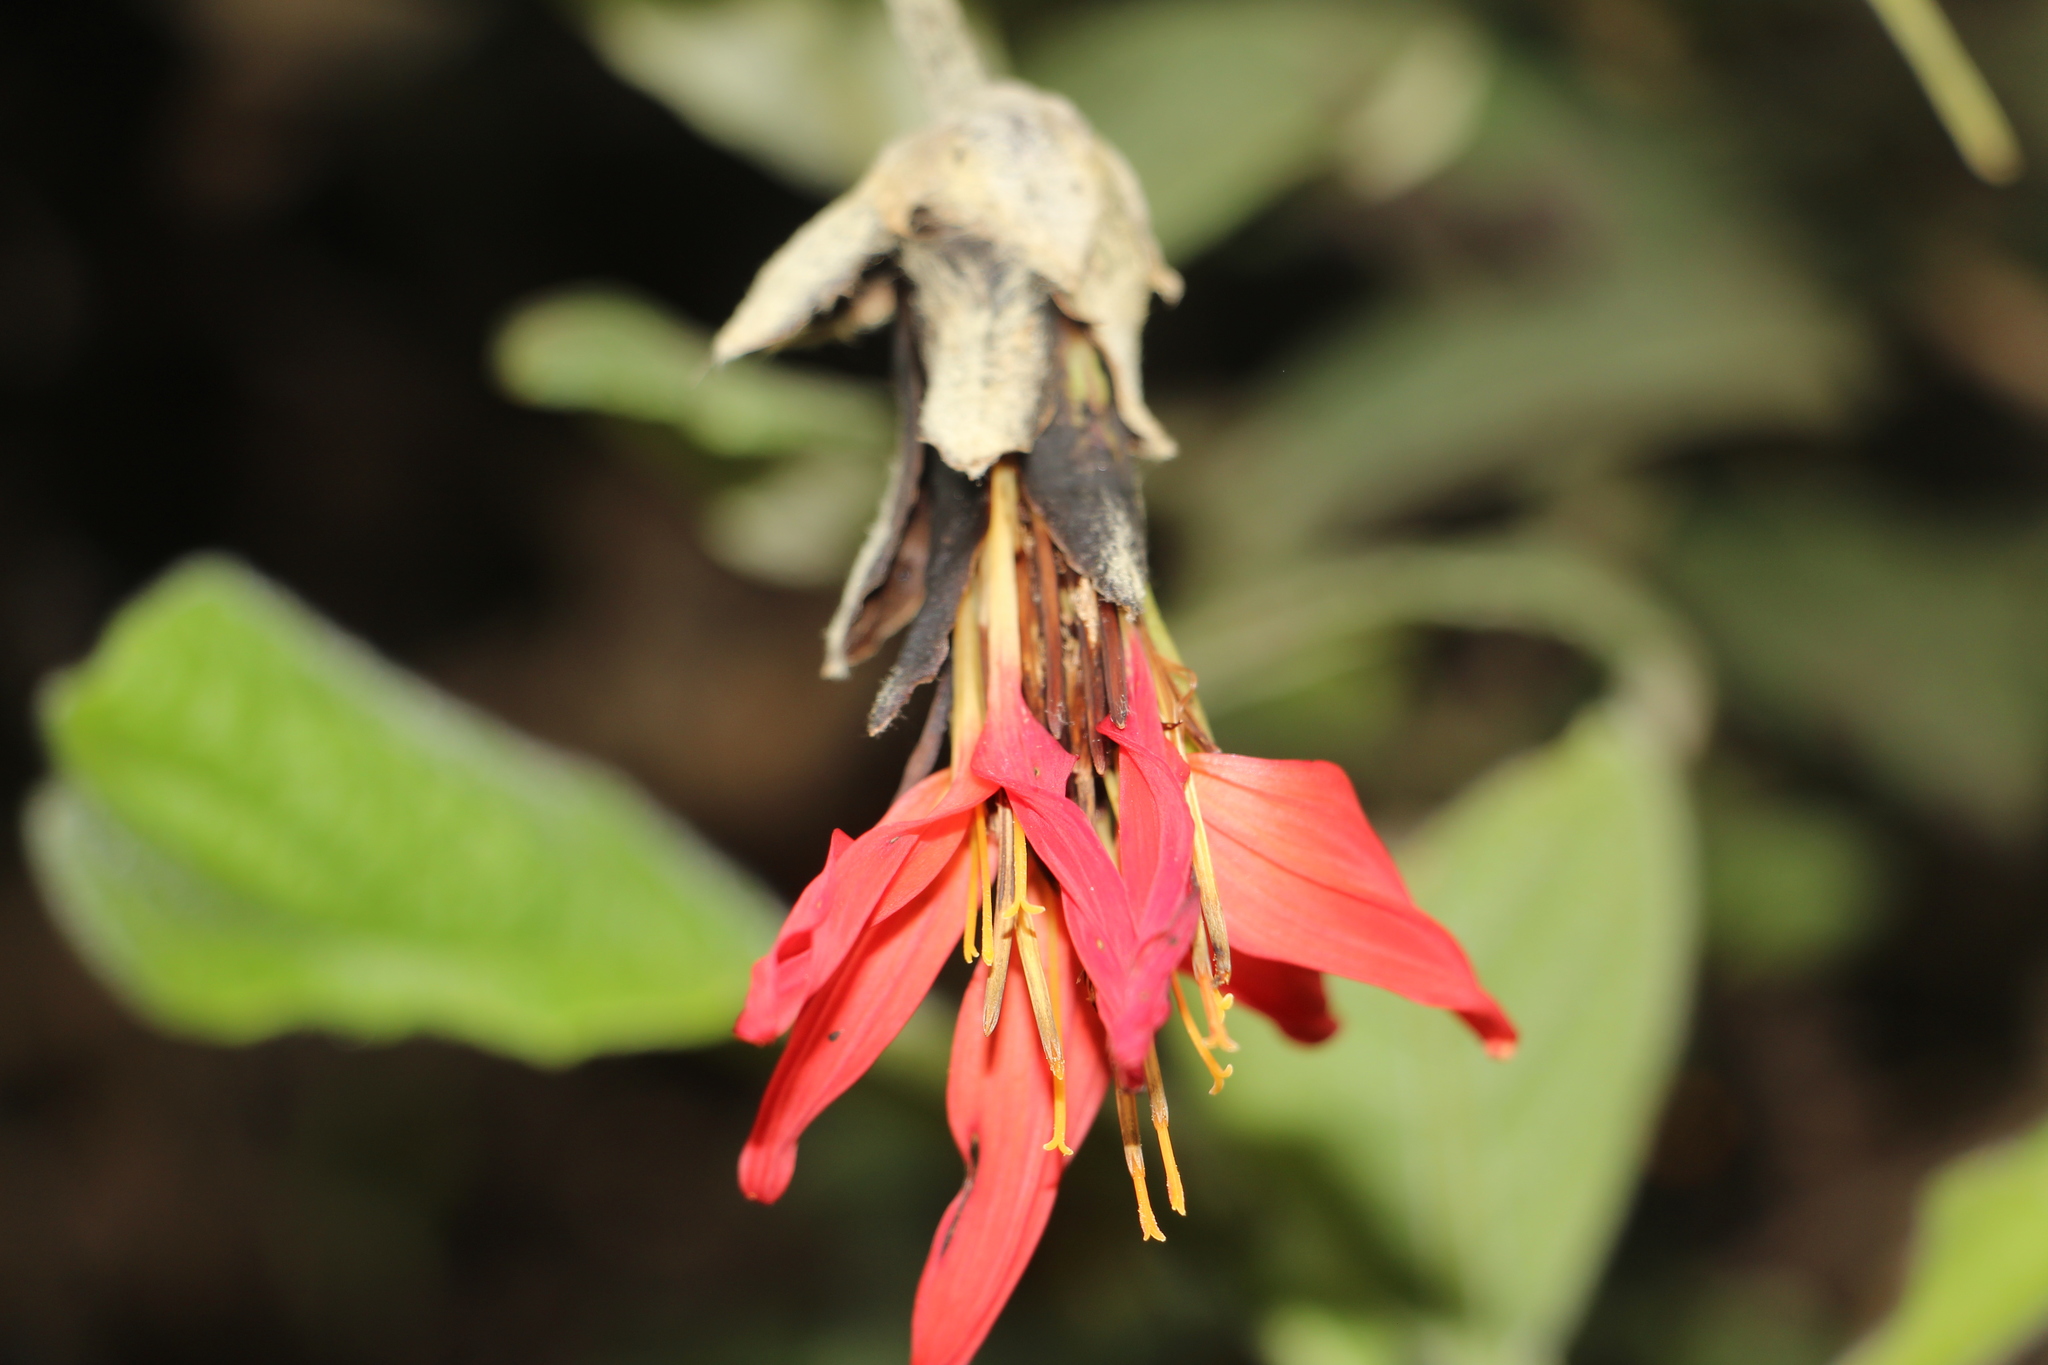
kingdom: Plantae
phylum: Tracheophyta
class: Magnoliopsida
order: Asterales
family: Asteraceae
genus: Mutisia
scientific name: Mutisia clematis
